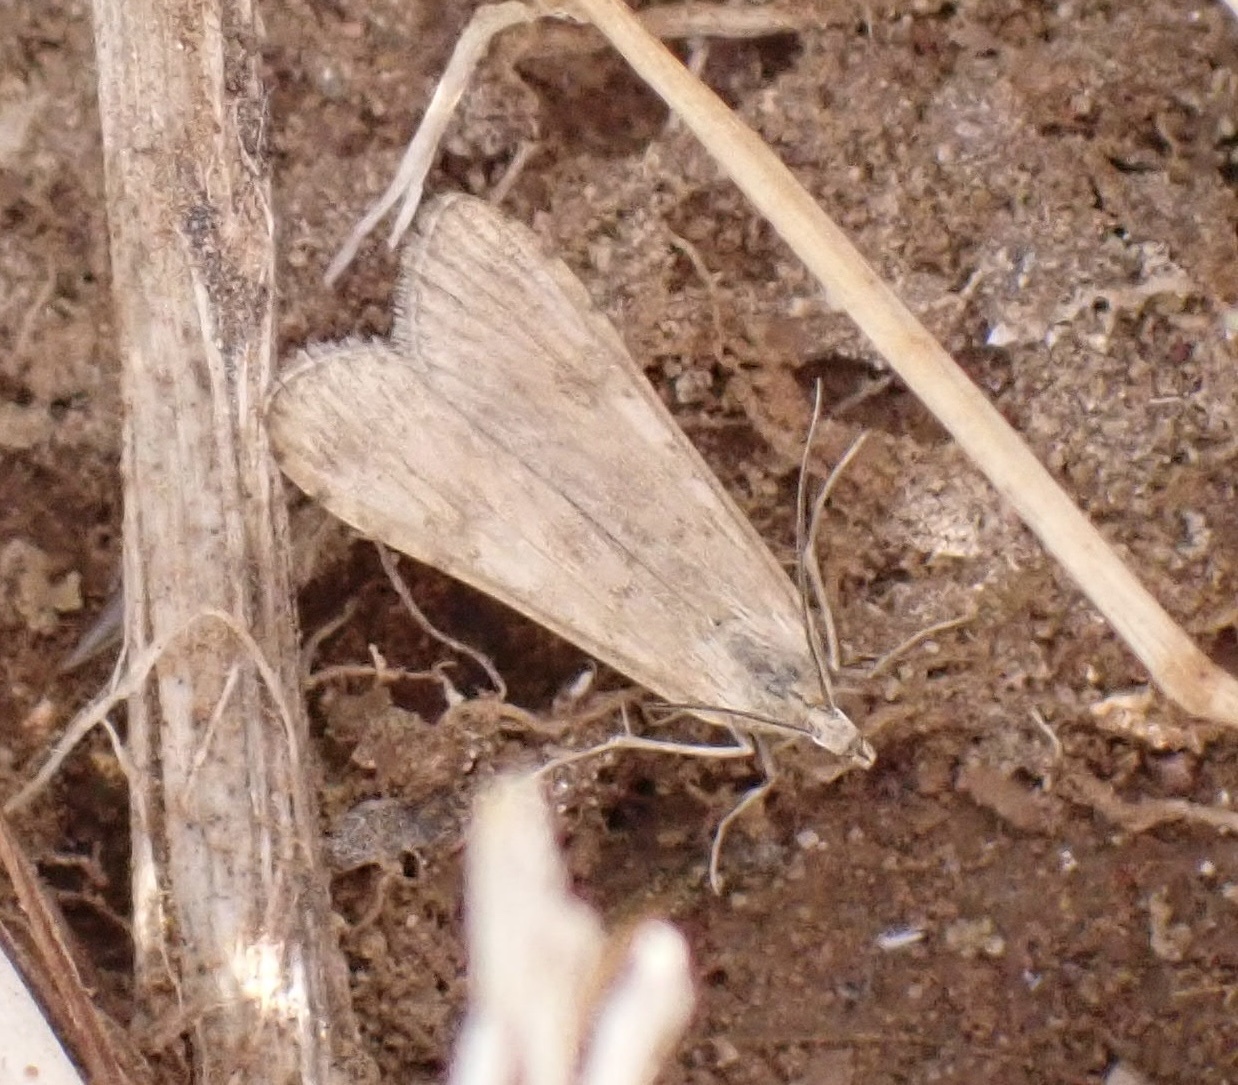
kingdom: Animalia
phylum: Arthropoda
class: Insecta
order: Lepidoptera
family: Crambidae
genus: Nomophila
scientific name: Nomophila noctuella
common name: Rush veneer
